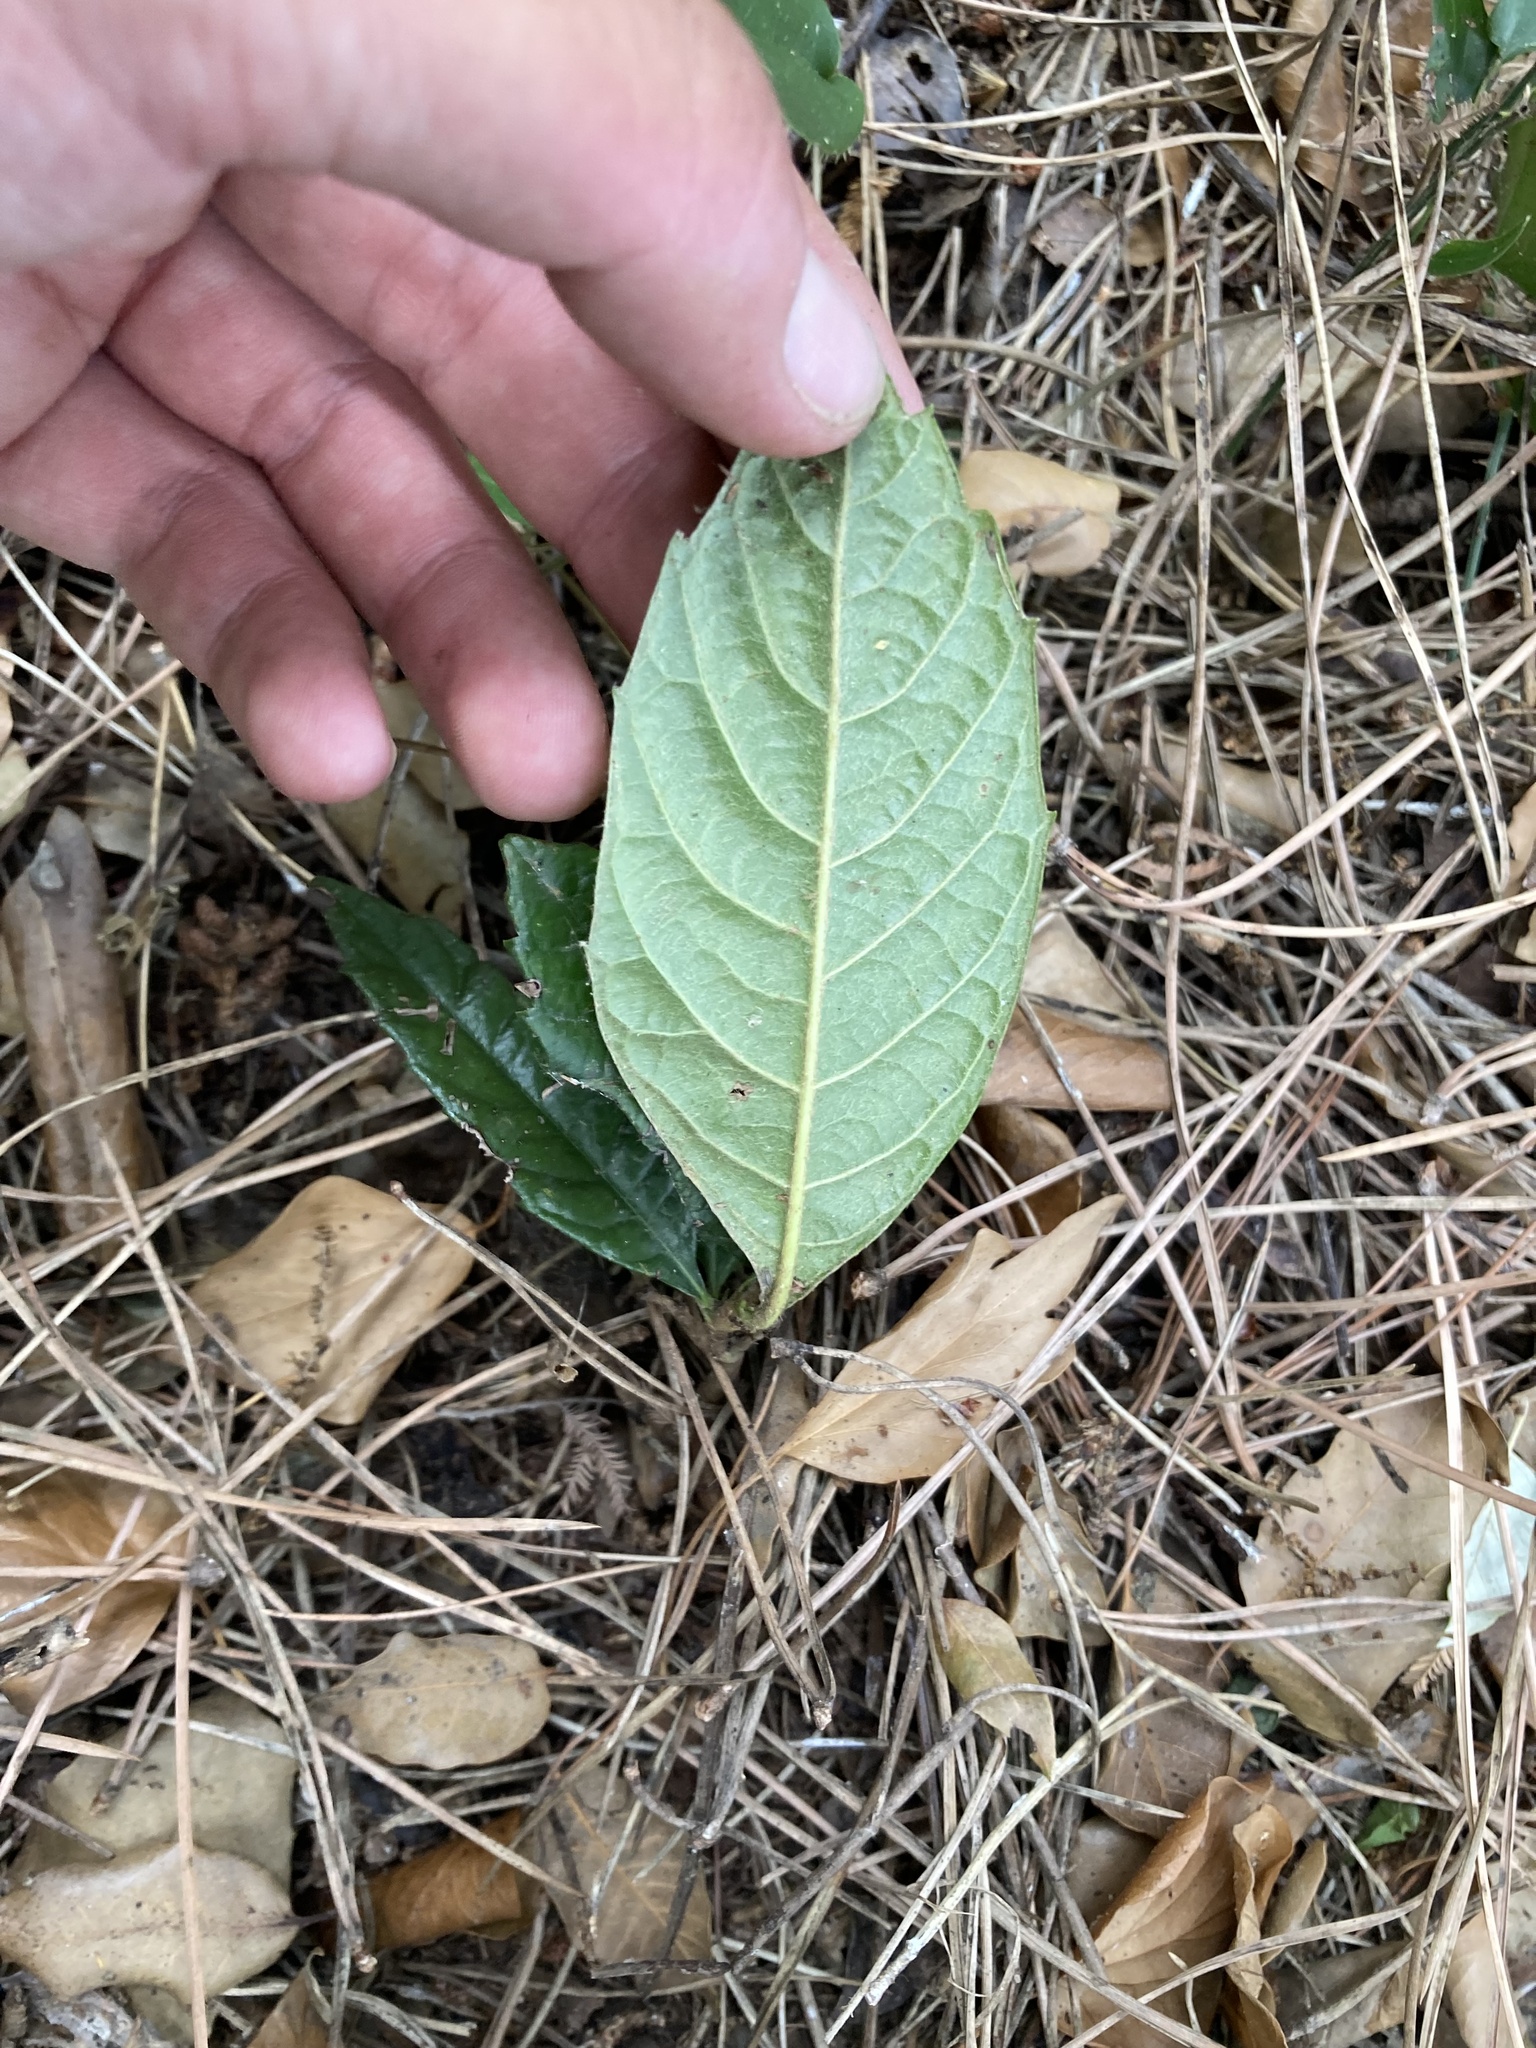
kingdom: Plantae
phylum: Tracheophyta
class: Magnoliopsida
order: Rosales
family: Rosaceae
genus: Rhaphiolepis
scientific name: Rhaphiolepis bibas
